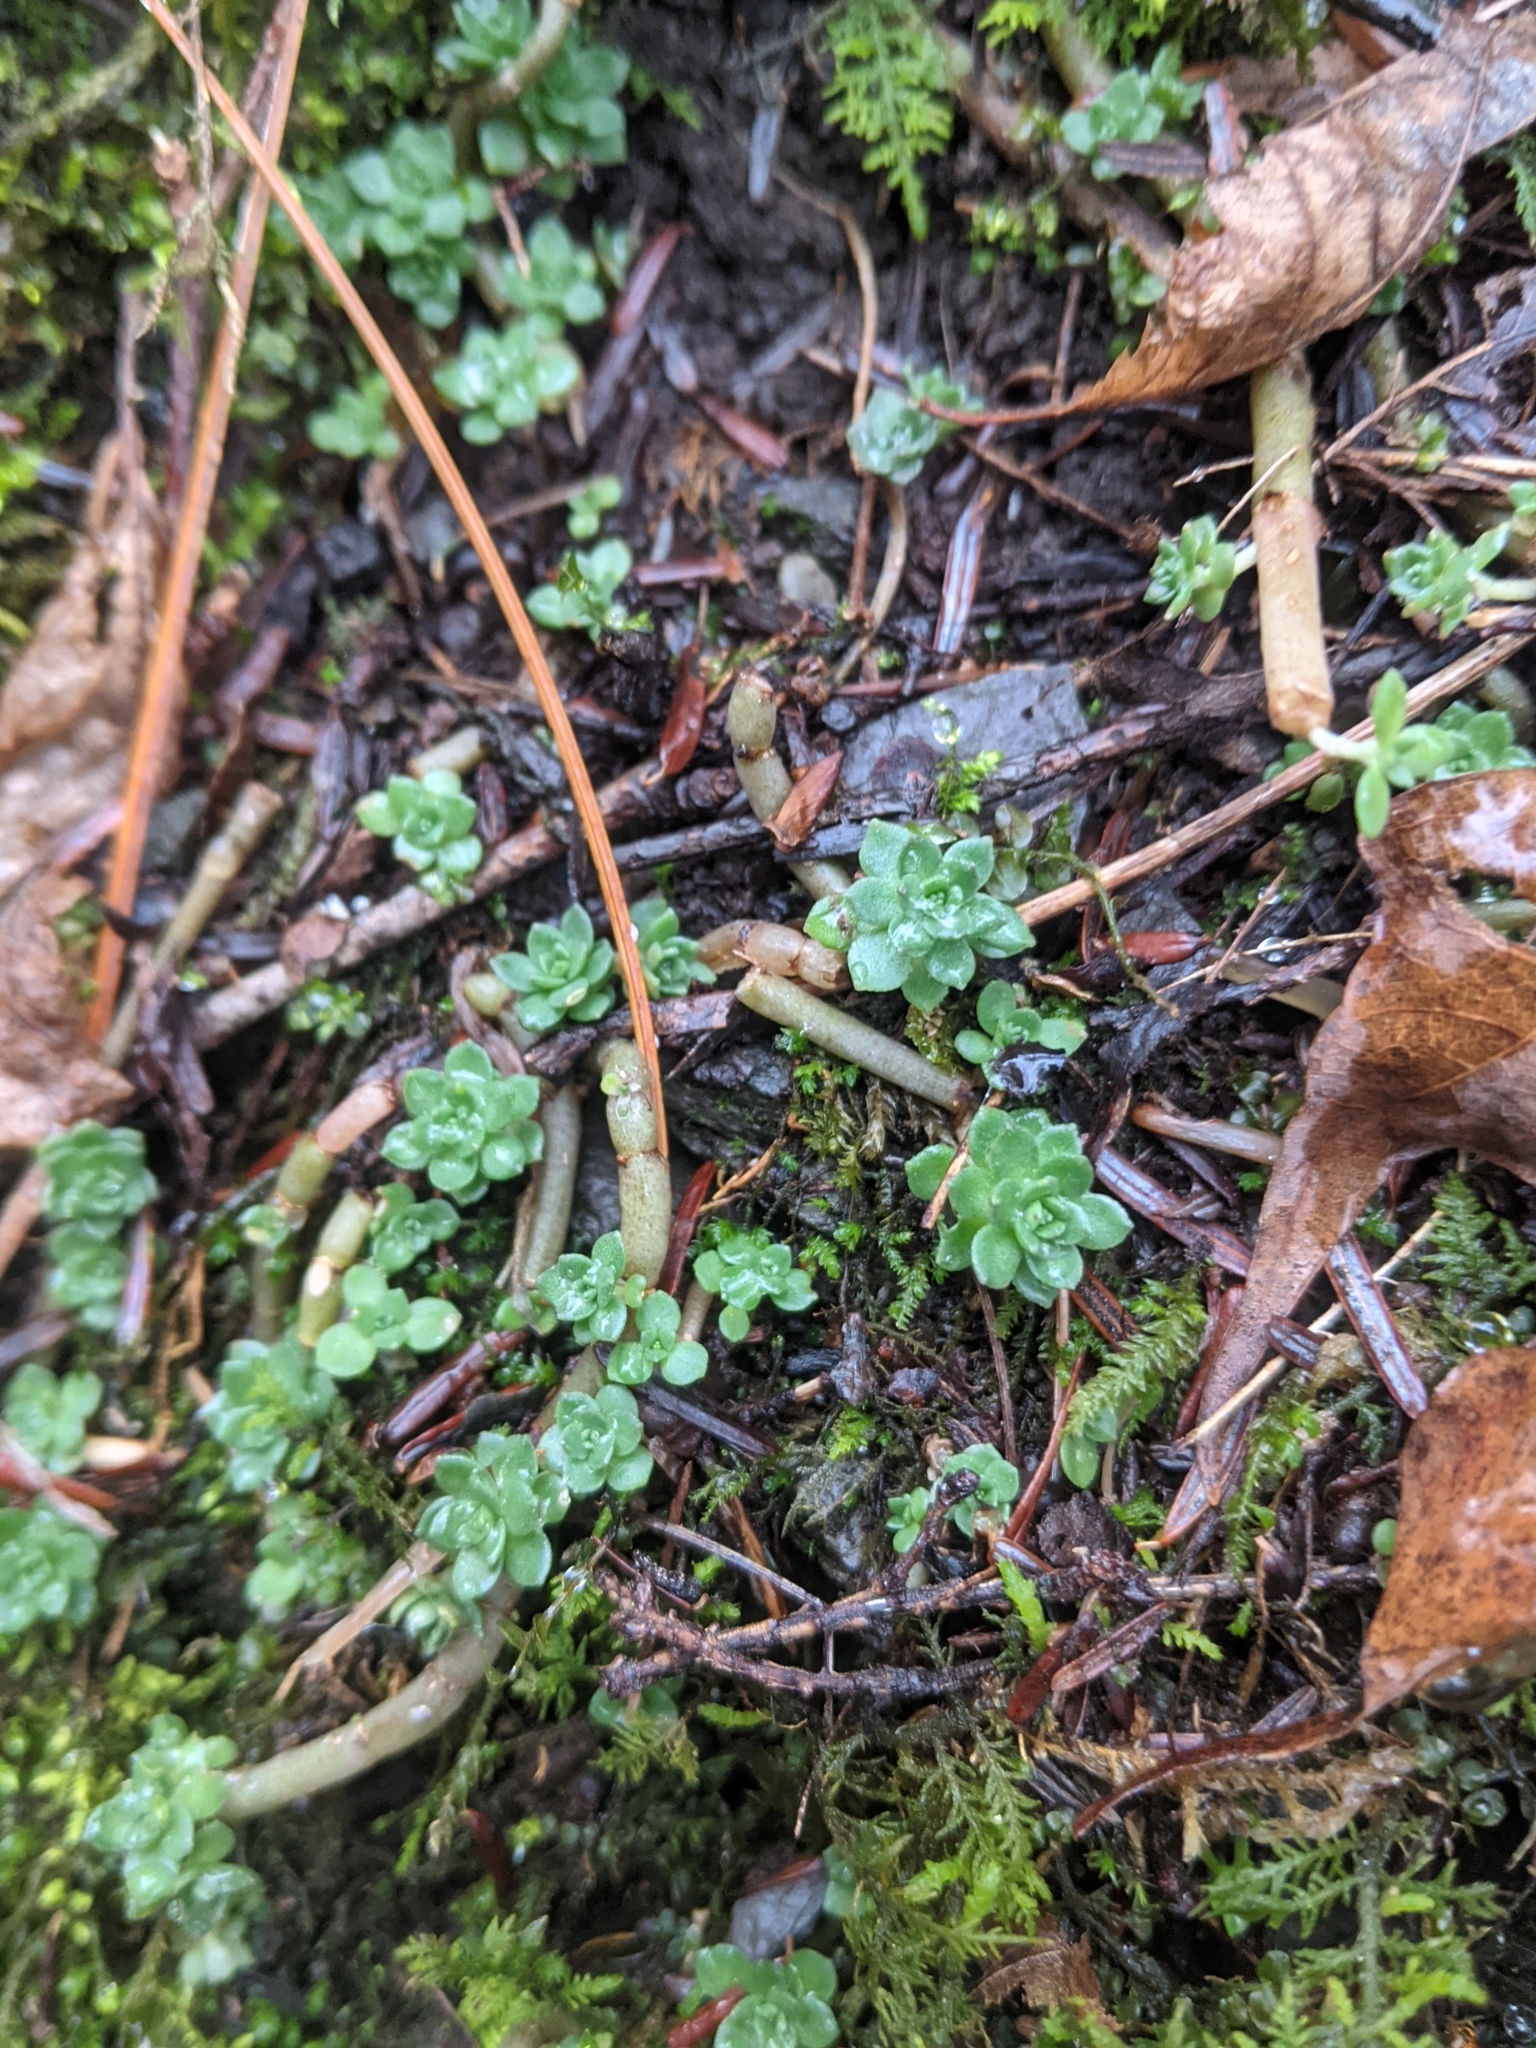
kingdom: Plantae
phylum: Tracheophyta
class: Magnoliopsida
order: Saxifragales
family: Crassulaceae
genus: Sedum
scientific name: Sedum ternatum
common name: Wild stonecrop
